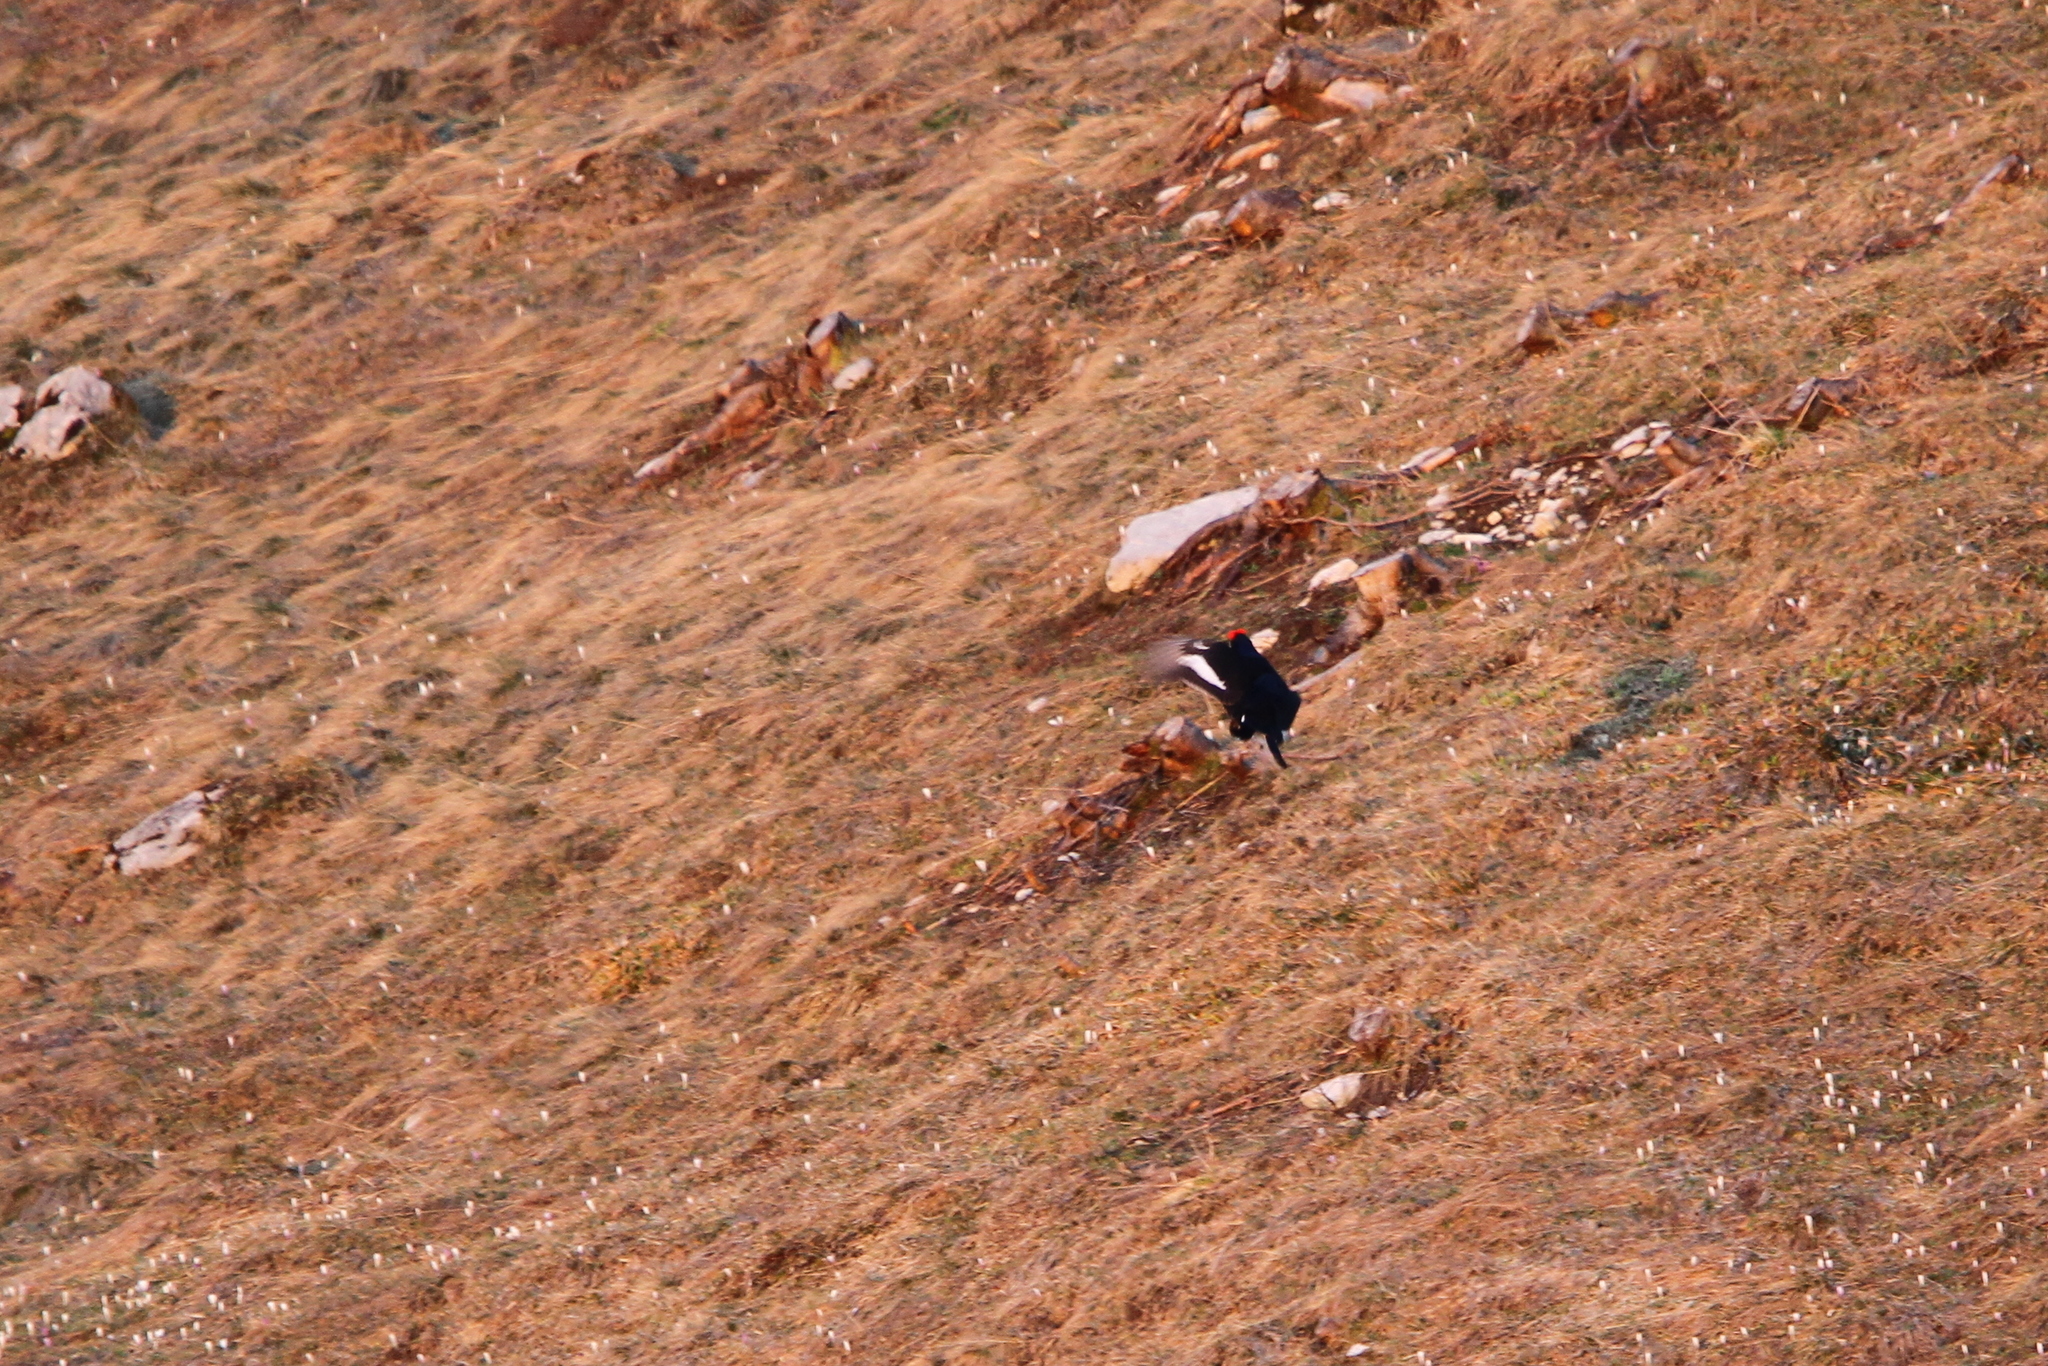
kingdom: Animalia
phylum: Chordata
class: Aves
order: Galliformes
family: Phasianidae
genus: Lyrurus
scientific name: Lyrurus tetrix
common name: Black grouse
